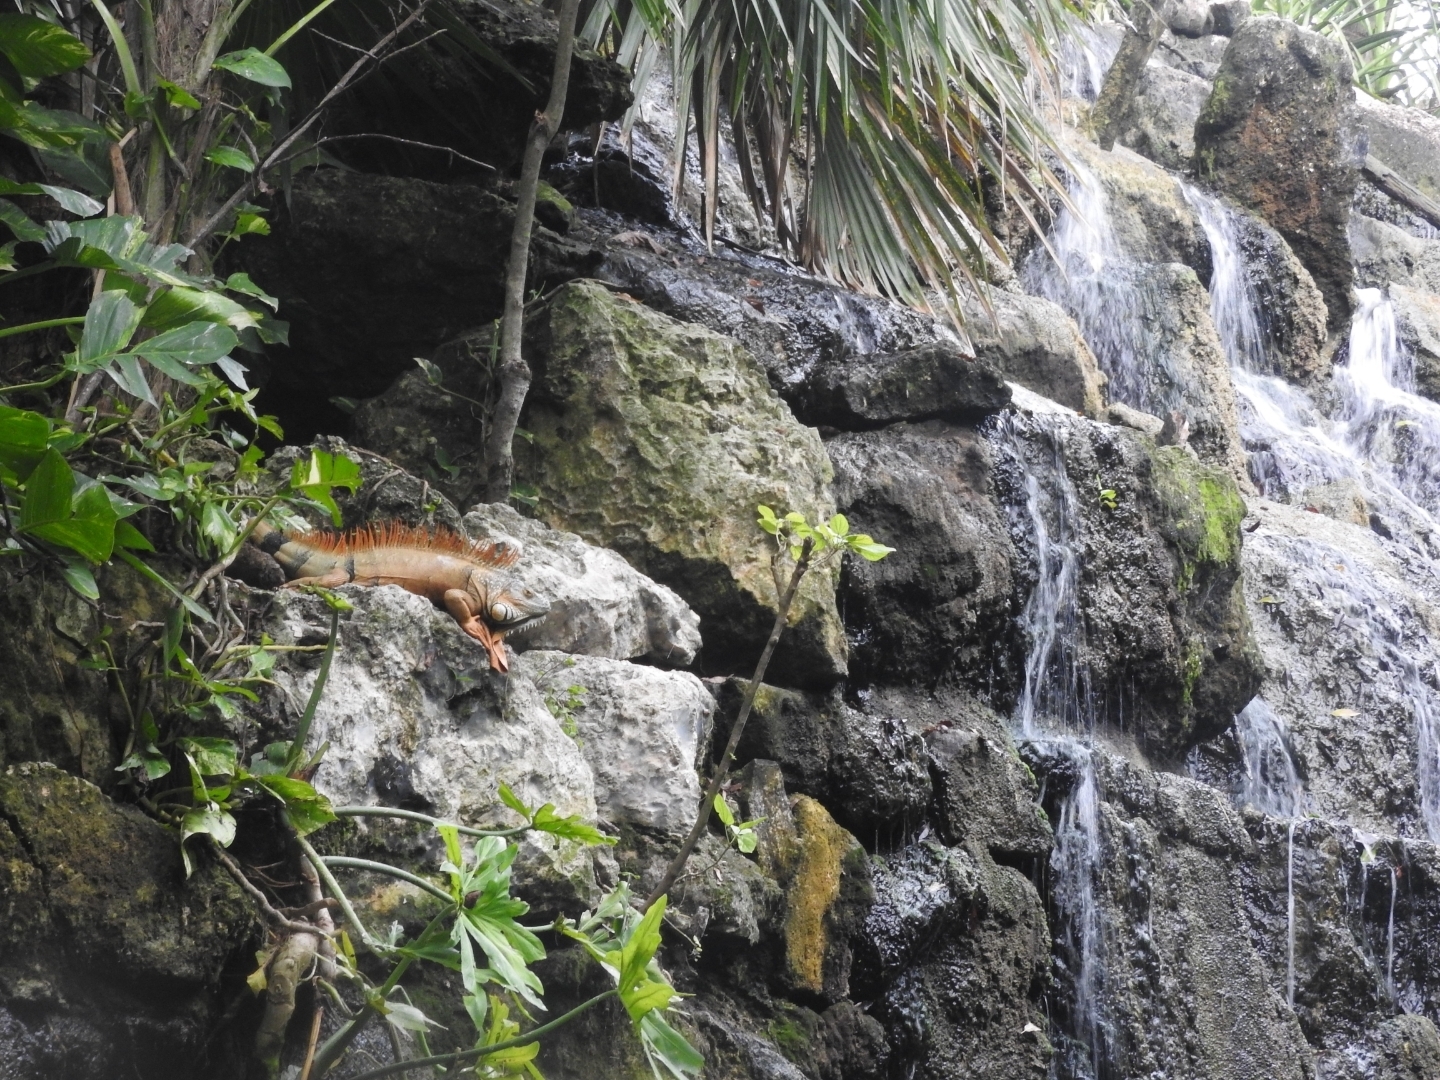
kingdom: Animalia
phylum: Chordata
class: Squamata
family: Iguanidae
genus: Iguana
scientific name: Iguana iguana
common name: Green iguana
